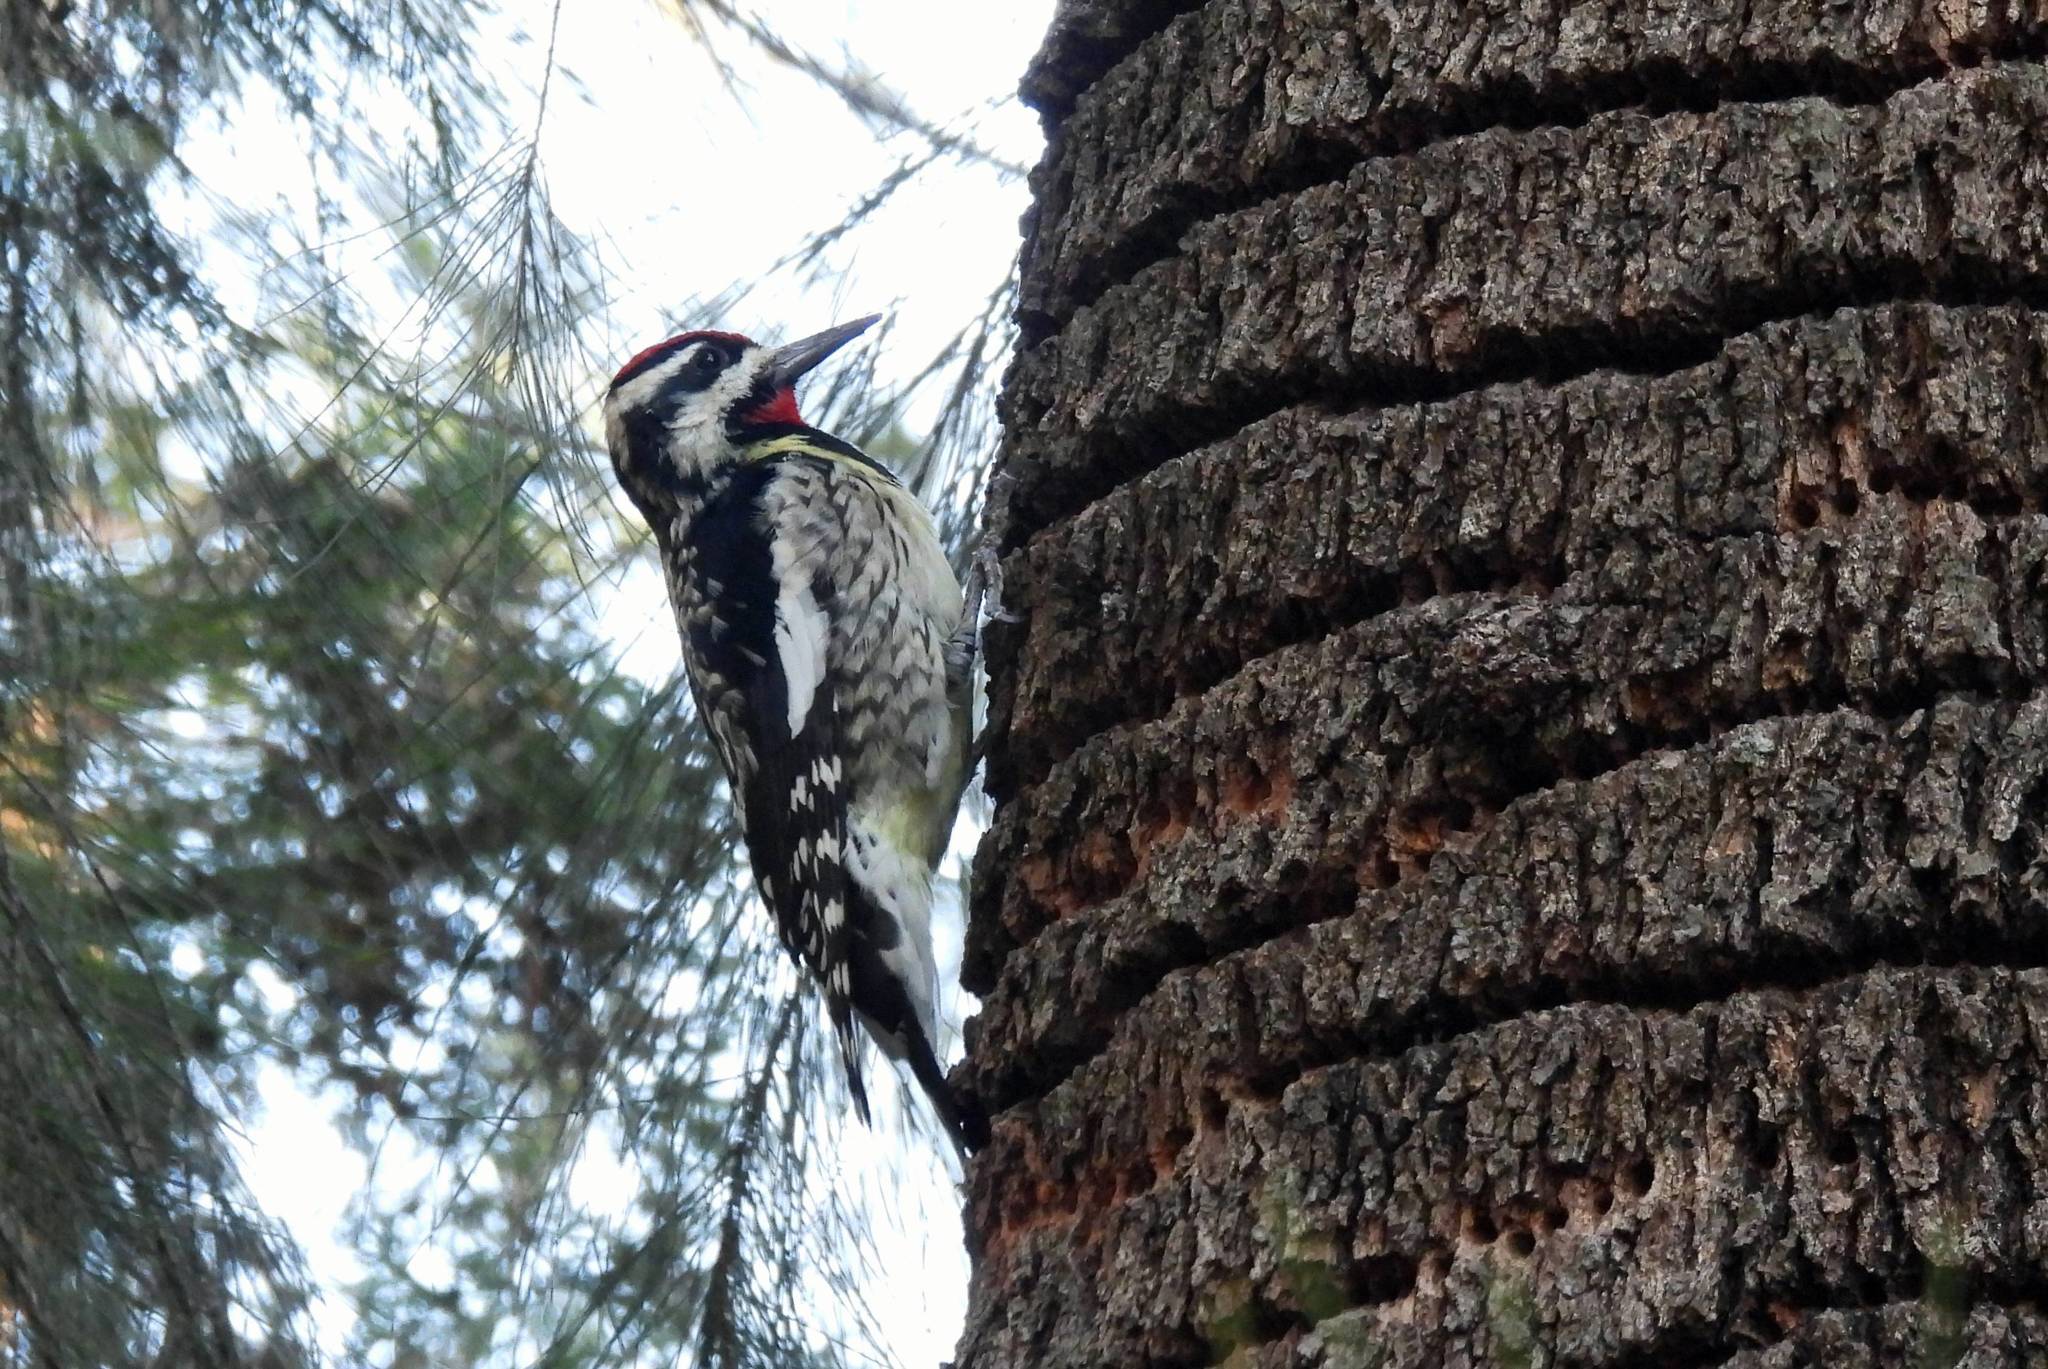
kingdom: Animalia
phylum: Chordata
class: Aves
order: Piciformes
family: Picidae
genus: Sphyrapicus
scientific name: Sphyrapicus varius
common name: Yellow-bellied sapsucker
